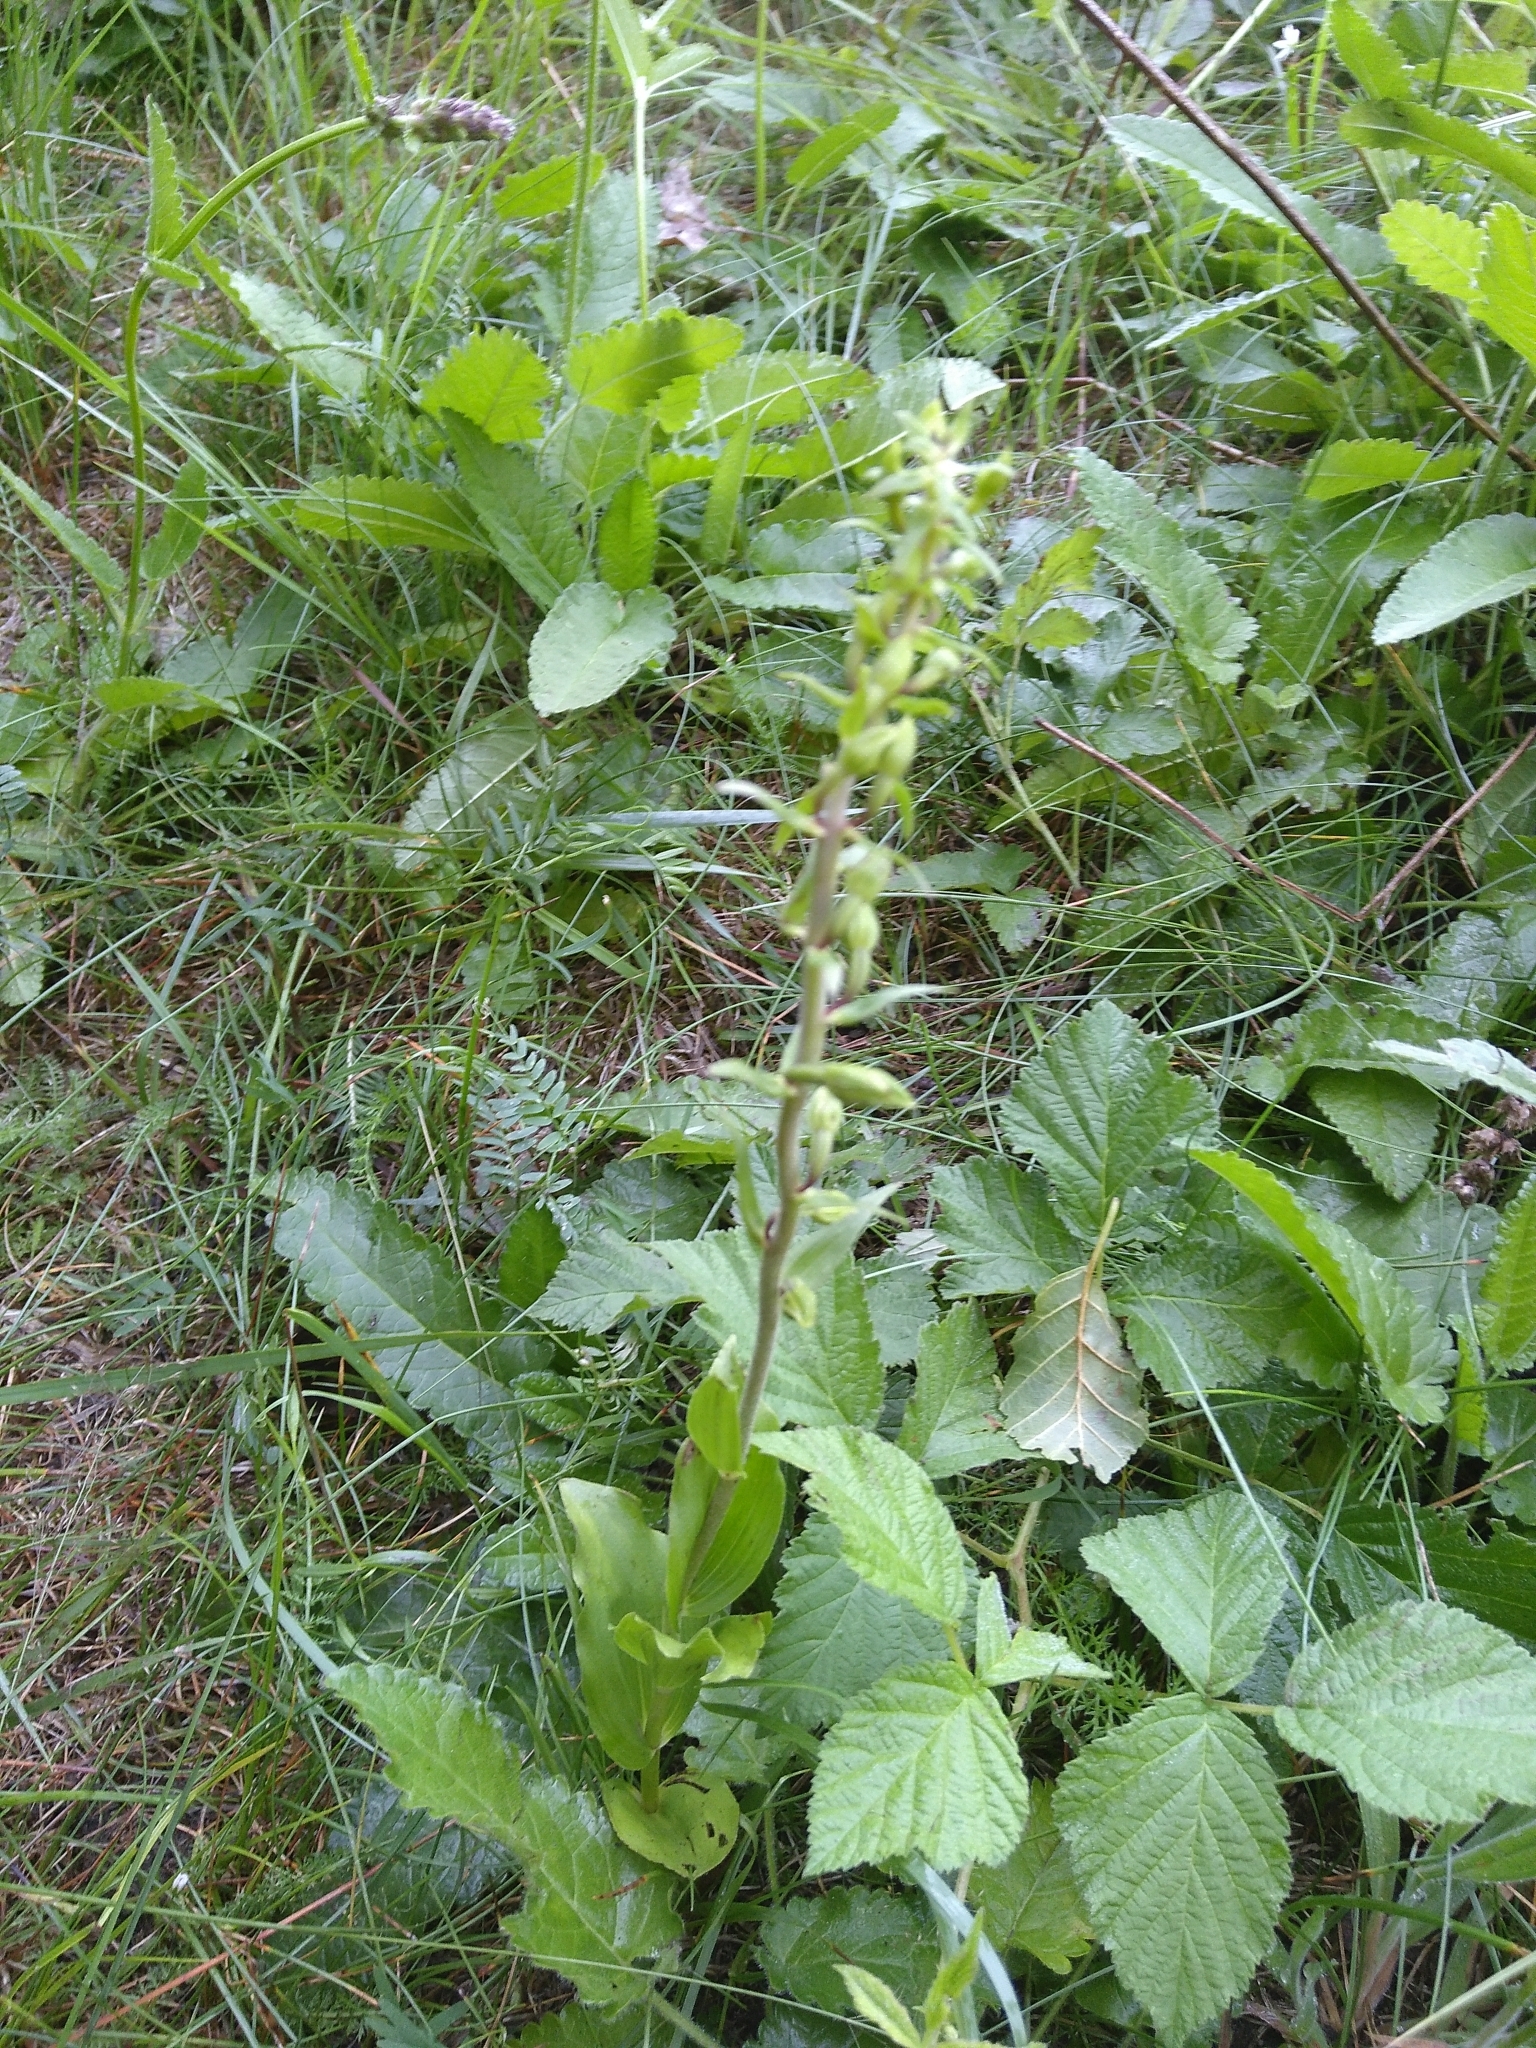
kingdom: Plantae
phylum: Tracheophyta
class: Liliopsida
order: Asparagales
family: Orchidaceae
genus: Epipactis
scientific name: Epipactis helleborine
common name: Broad-leaved helleborine
